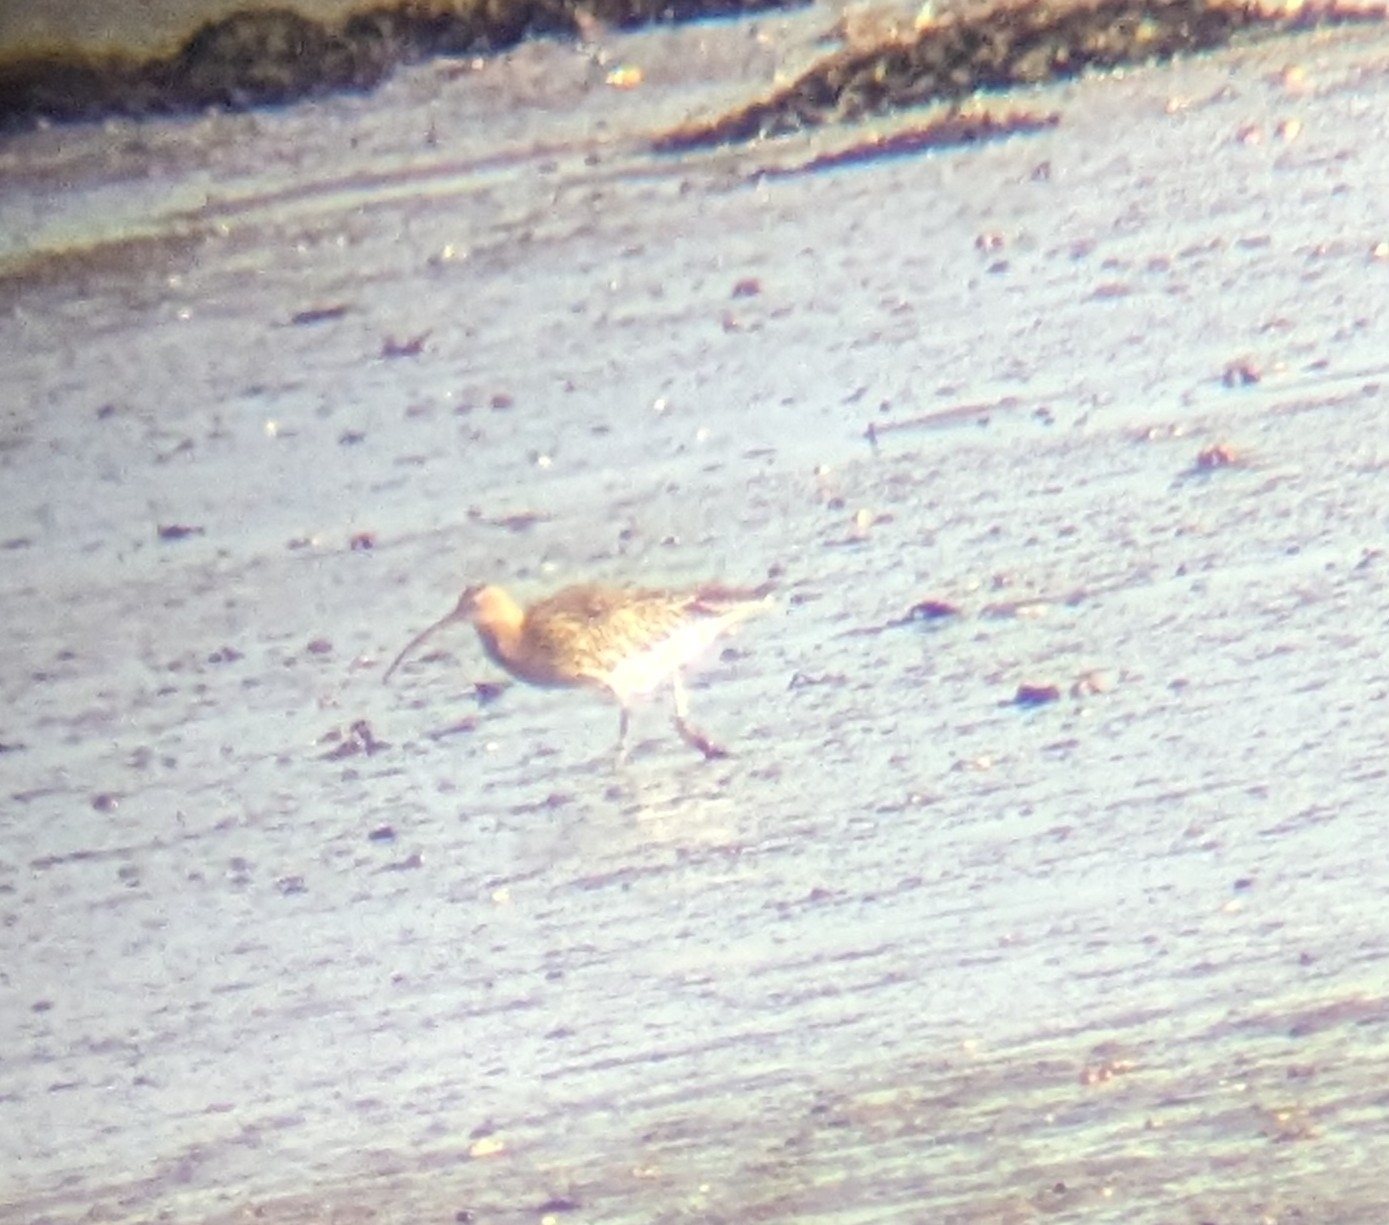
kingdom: Animalia
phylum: Chordata
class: Aves
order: Charadriiformes
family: Scolopacidae
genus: Numenius
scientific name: Numenius arquata
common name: Eurasian curlew
